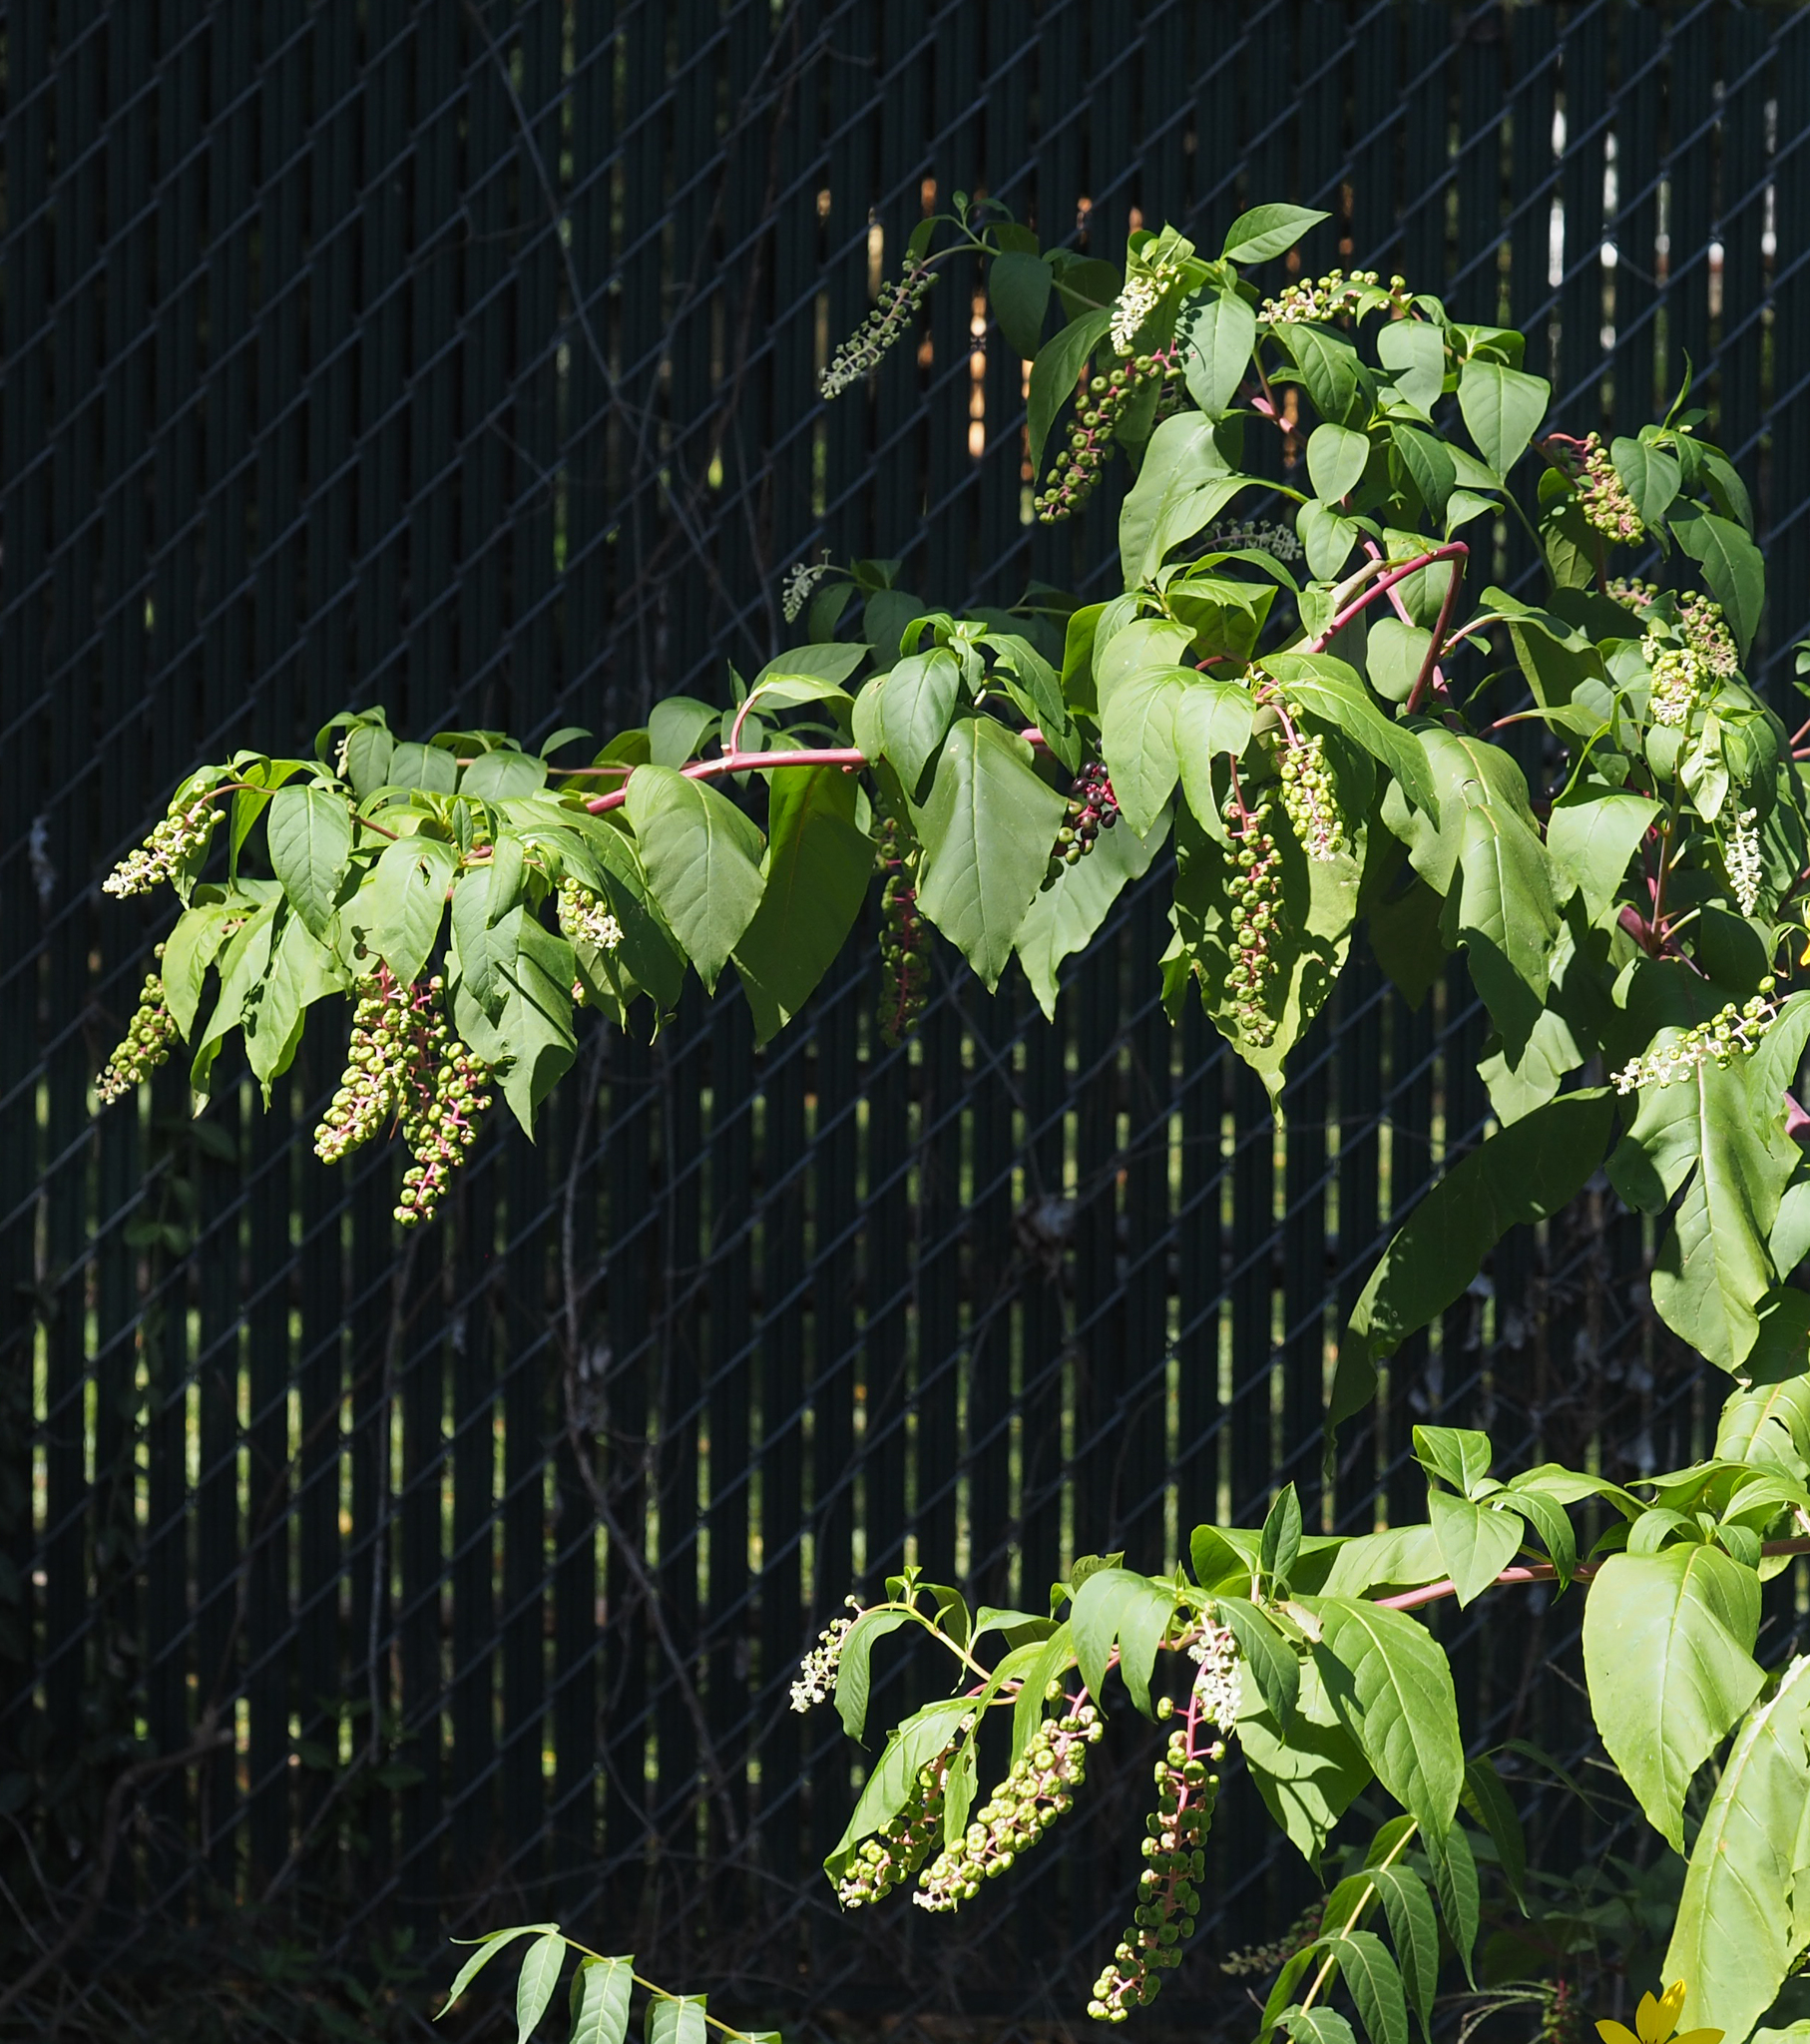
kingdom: Plantae
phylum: Tracheophyta
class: Magnoliopsida
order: Caryophyllales
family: Phytolaccaceae
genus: Phytolacca
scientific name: Phytolacca americana
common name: American pokeweed
